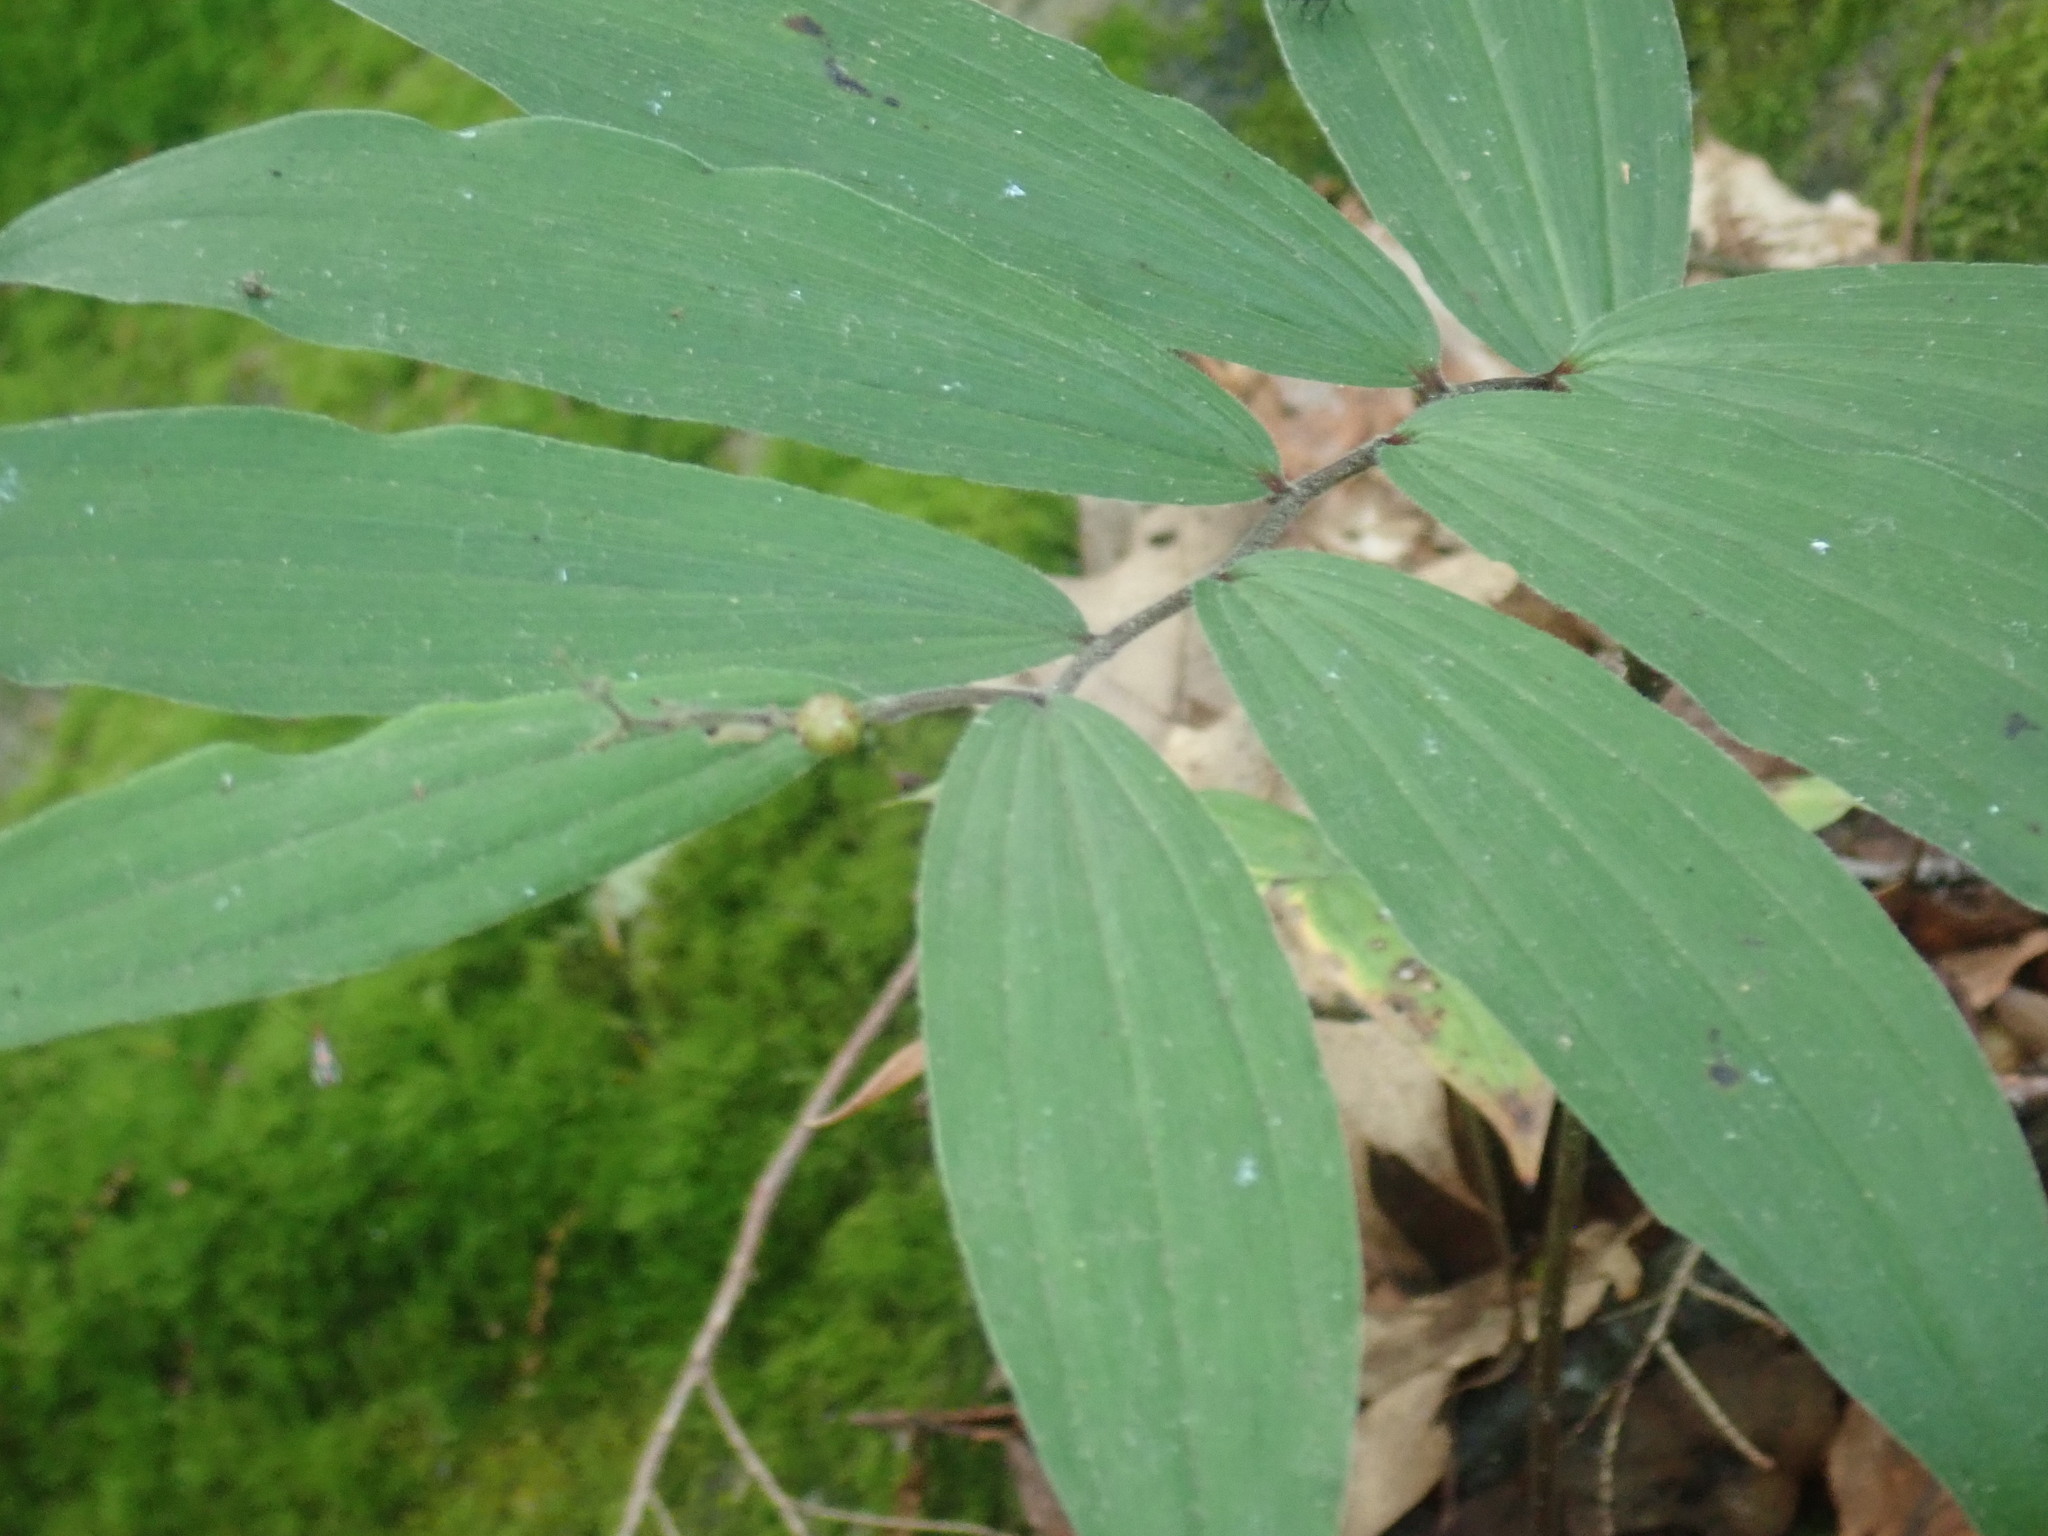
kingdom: Plantae
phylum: Tracheophyta
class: Liliopsida
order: Asparagales
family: Asparagaceae
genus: Maianthemum
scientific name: Maianthemum racemosum
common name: False spikenard
